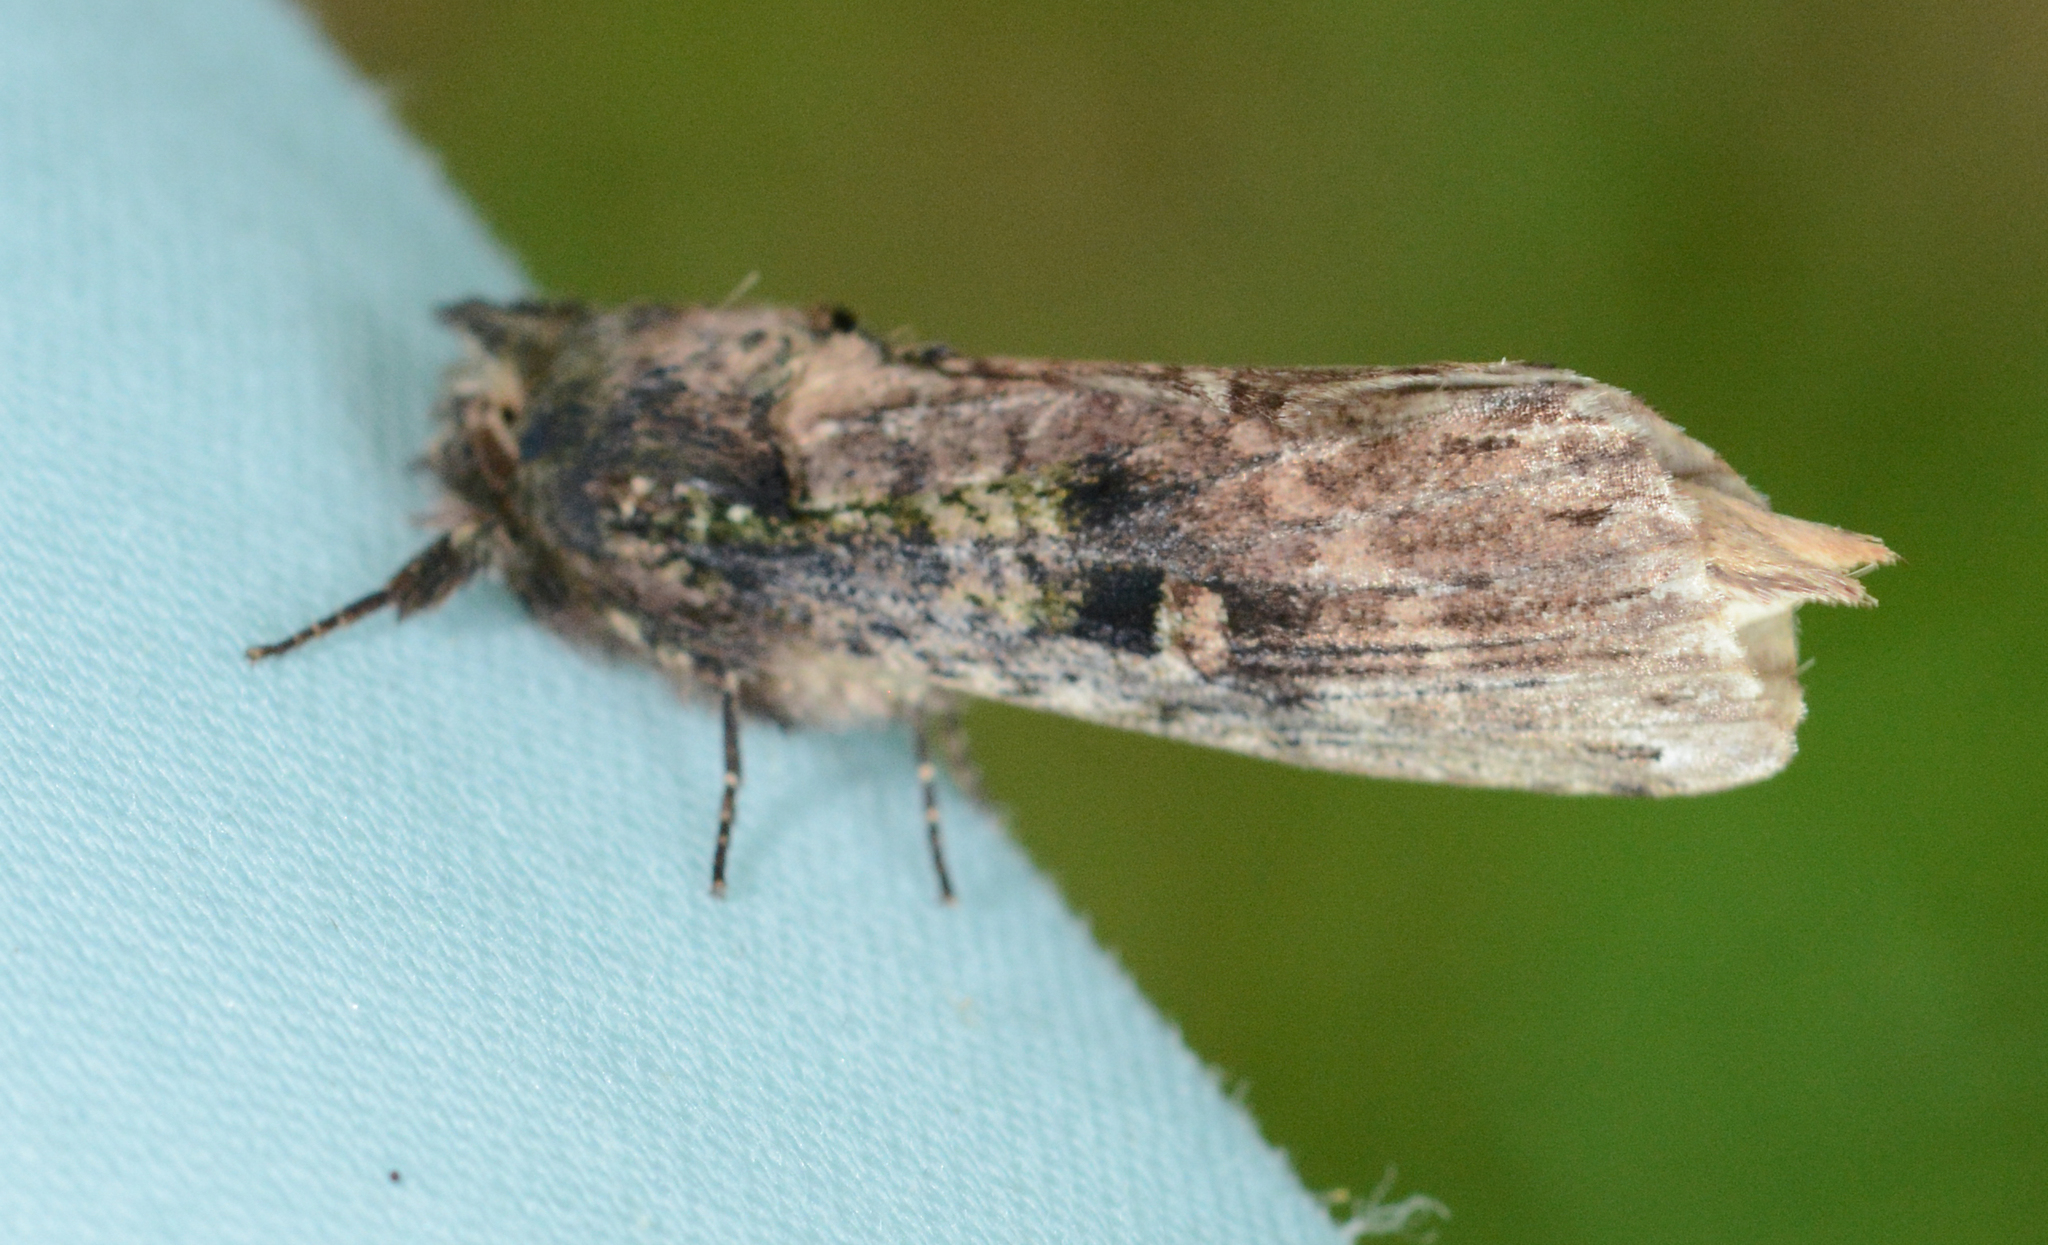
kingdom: Animalia
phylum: Arthropoda
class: Insecta
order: Lepidoptera
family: Notodontidae
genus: Schizura
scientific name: Schizura ipomaeae
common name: Morning-glory prominent
